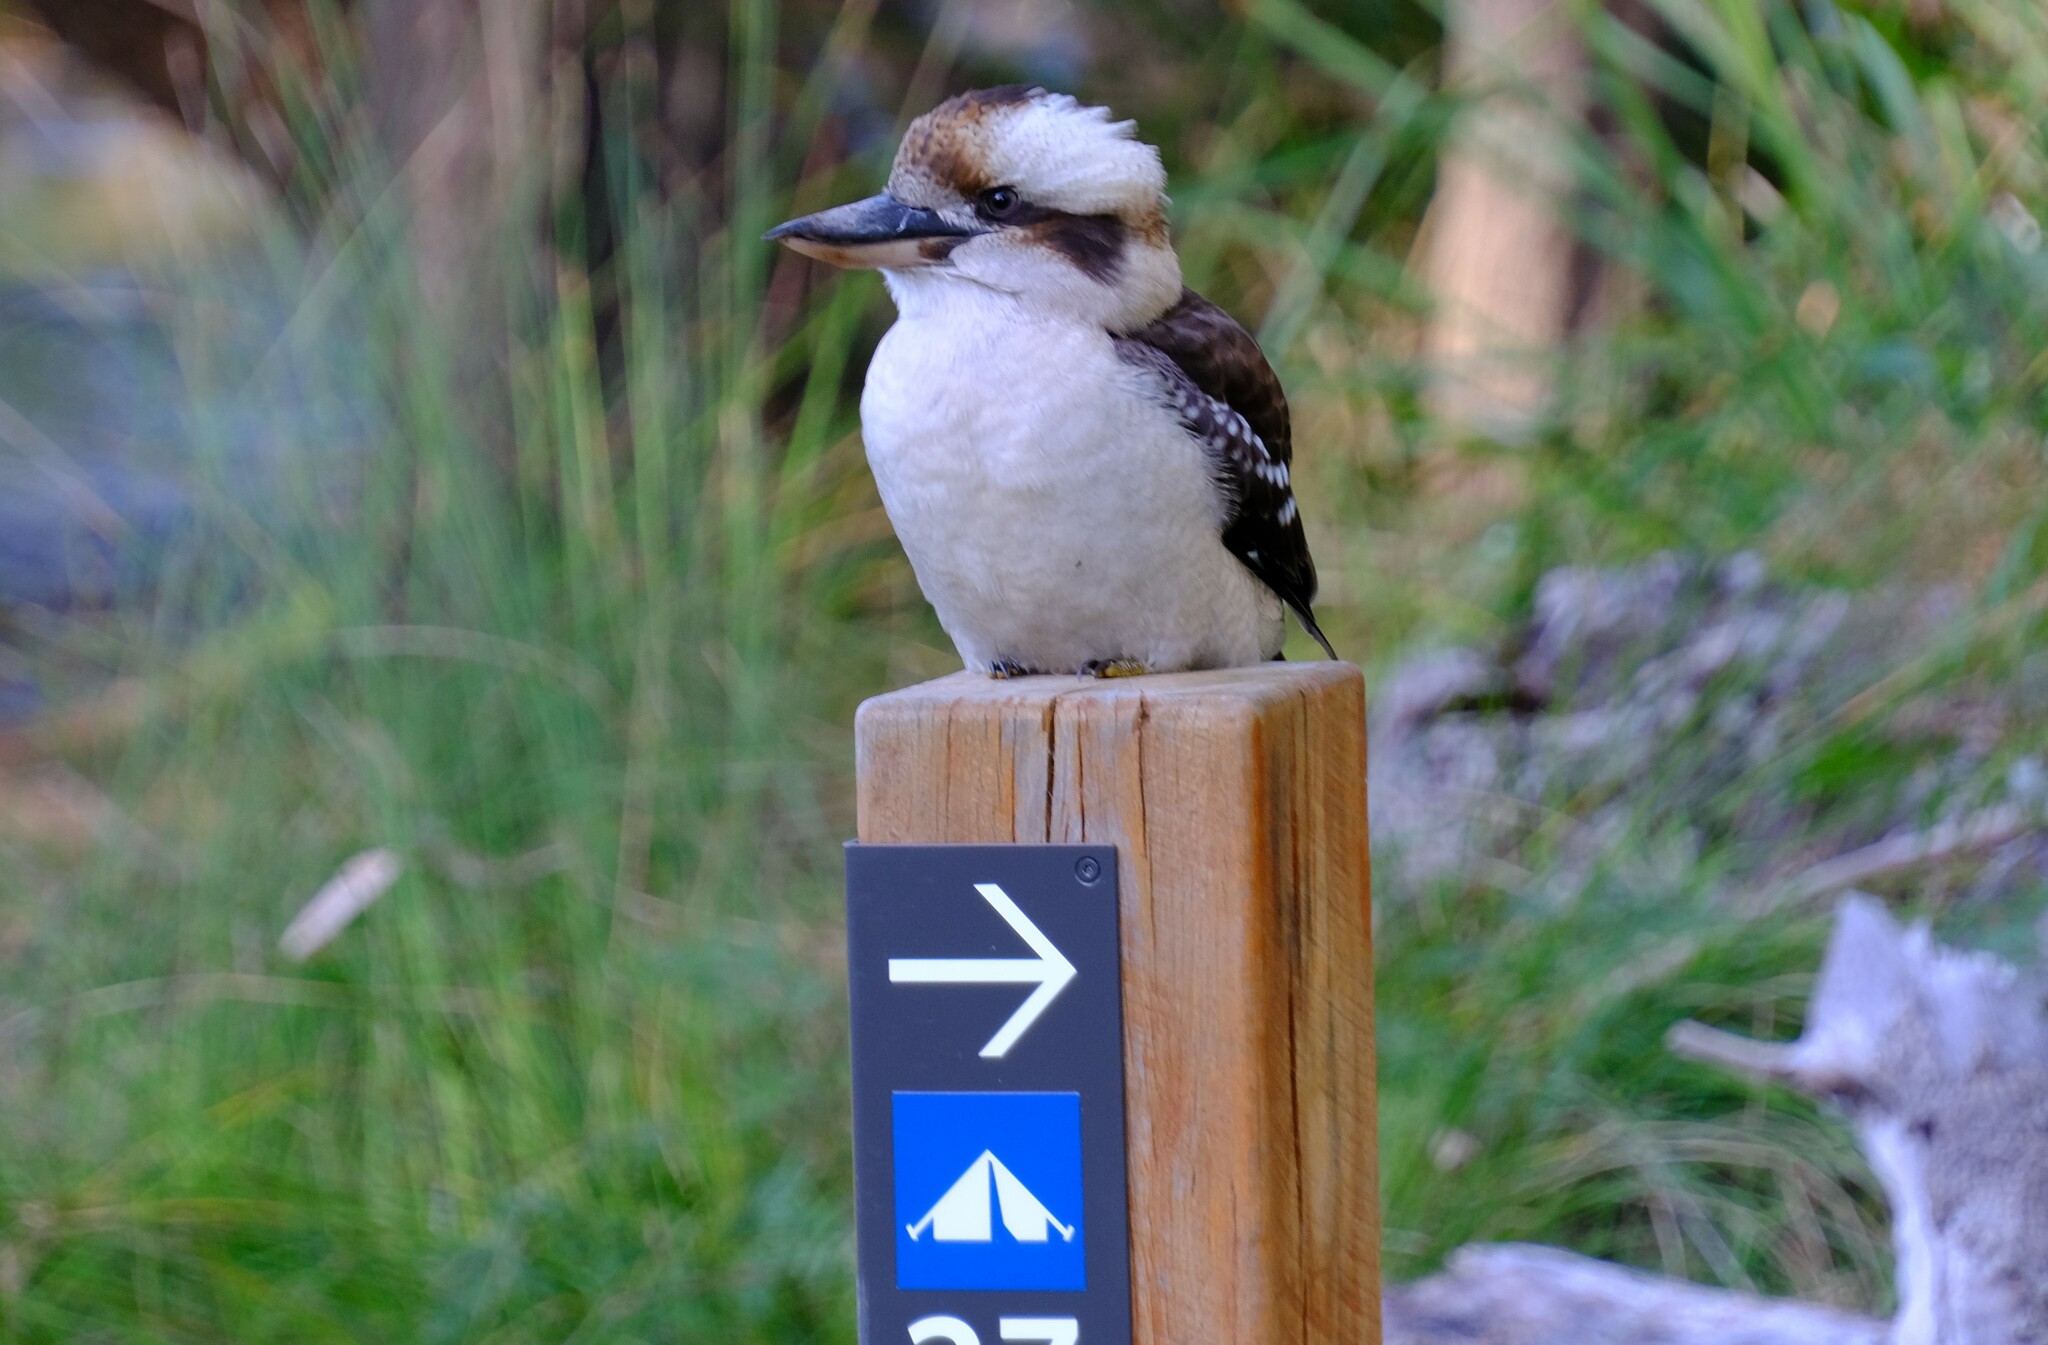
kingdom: Animalia
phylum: Chordata
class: Aves
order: Coraciiformes
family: Alcedinidae
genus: Dacelo
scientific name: Dacelo novaeguineae
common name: Laughing kookaburra
